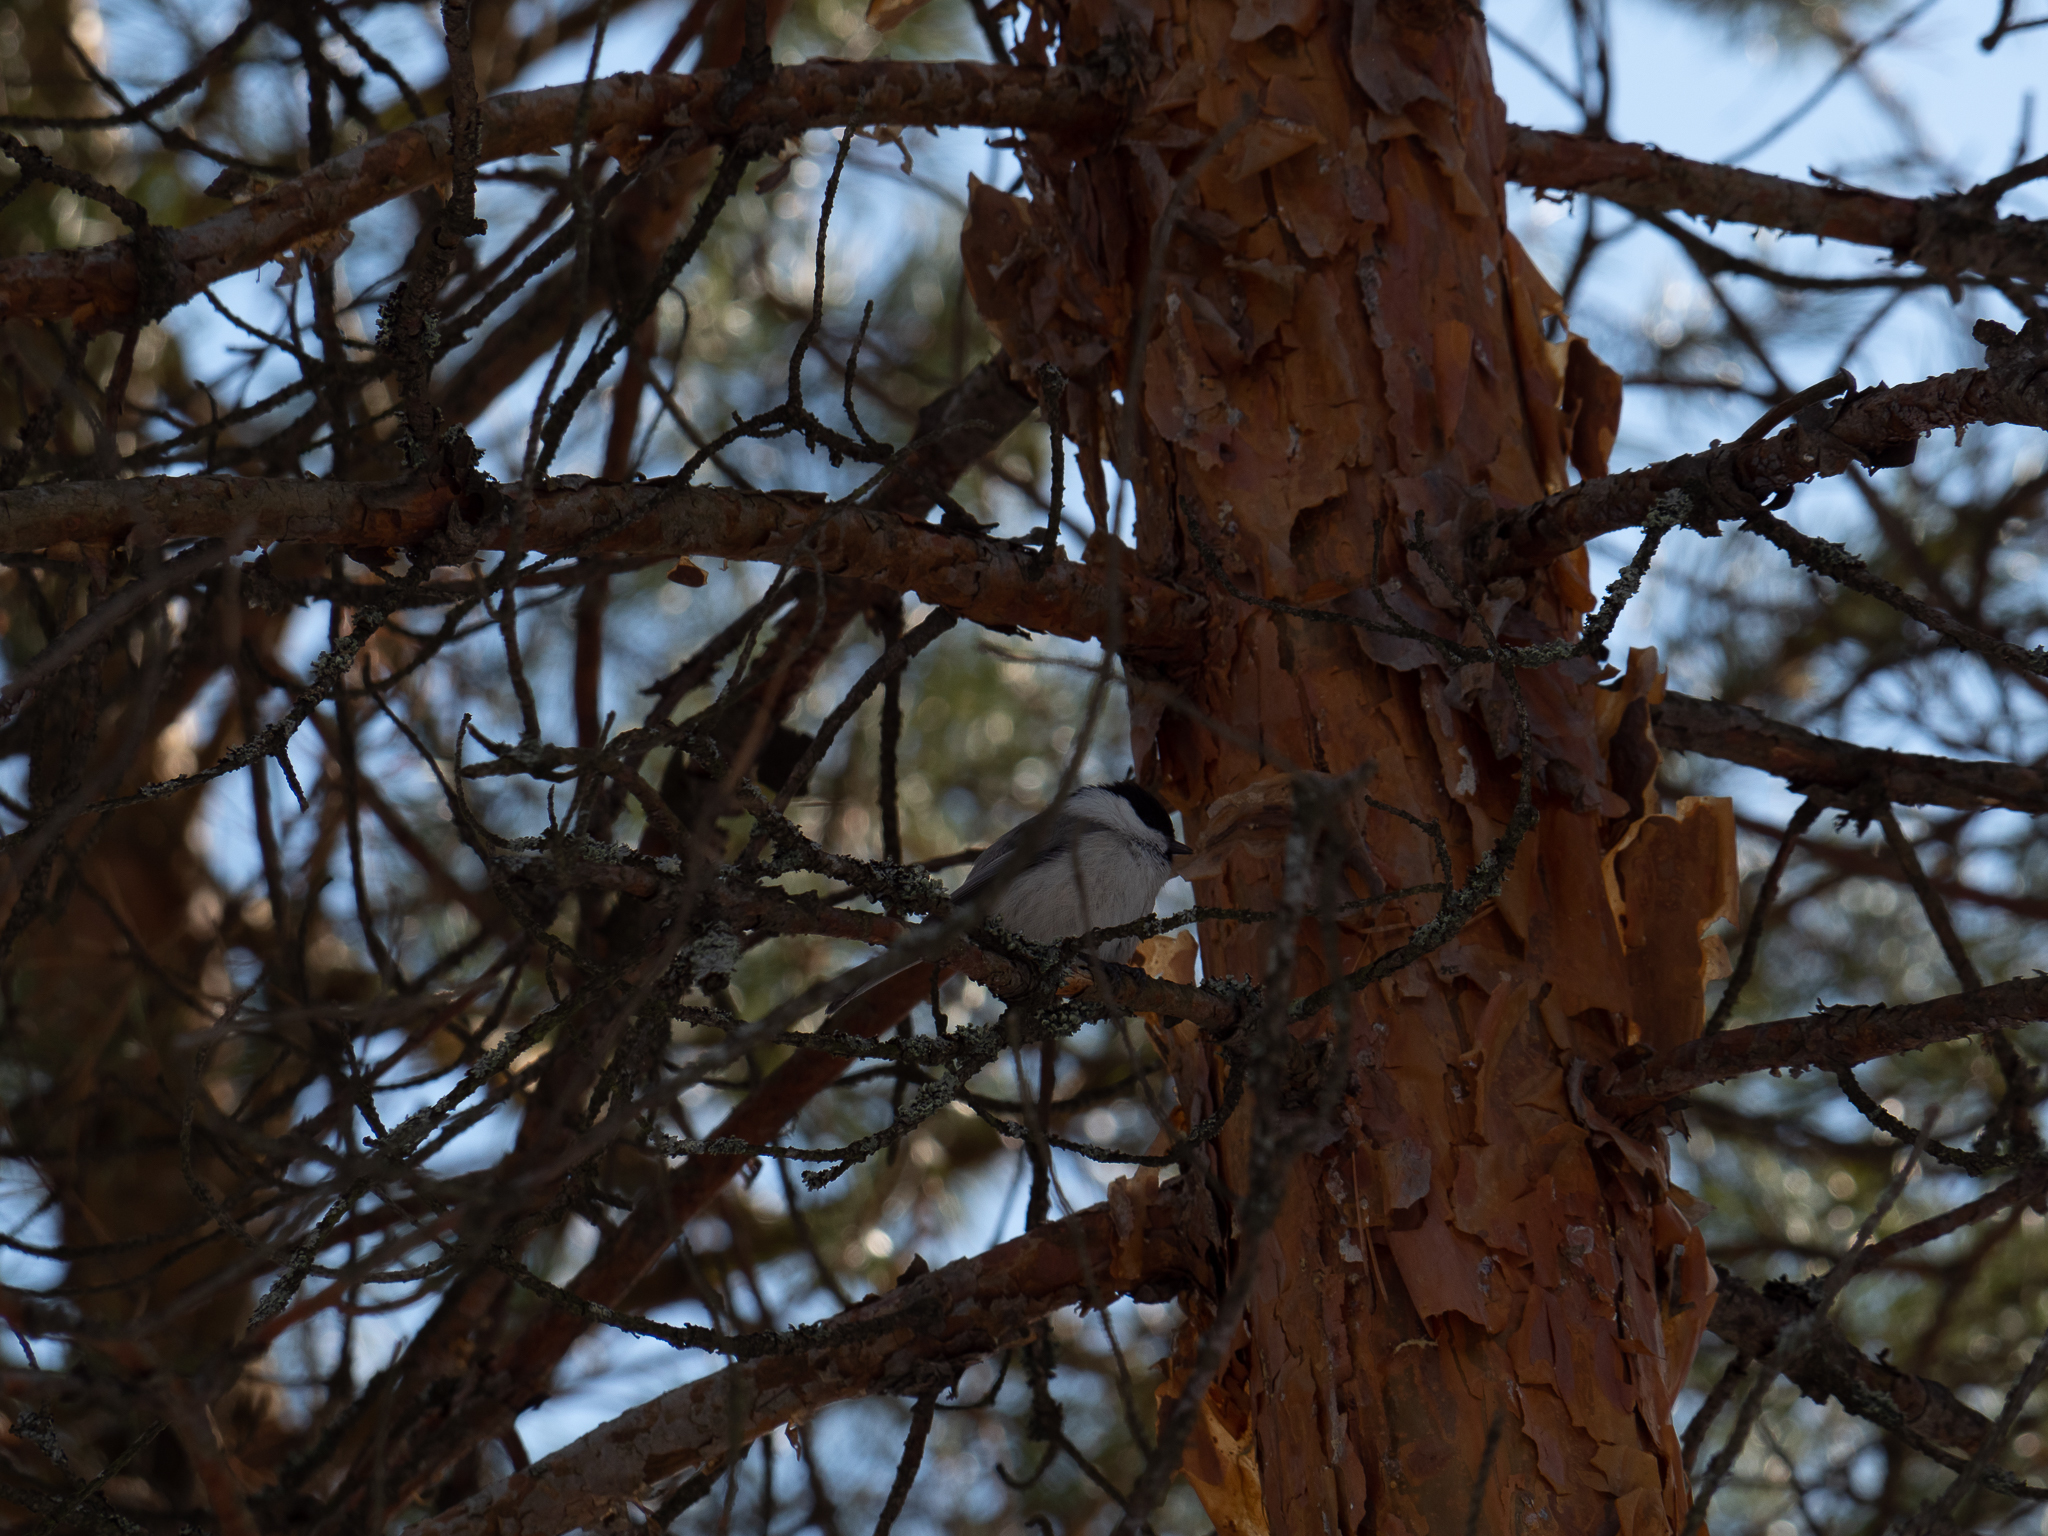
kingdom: Animalia
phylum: Chordata
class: Aves
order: Passeriformes
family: Paridae
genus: Poecile
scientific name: Poecile montanus
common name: Willow tit
